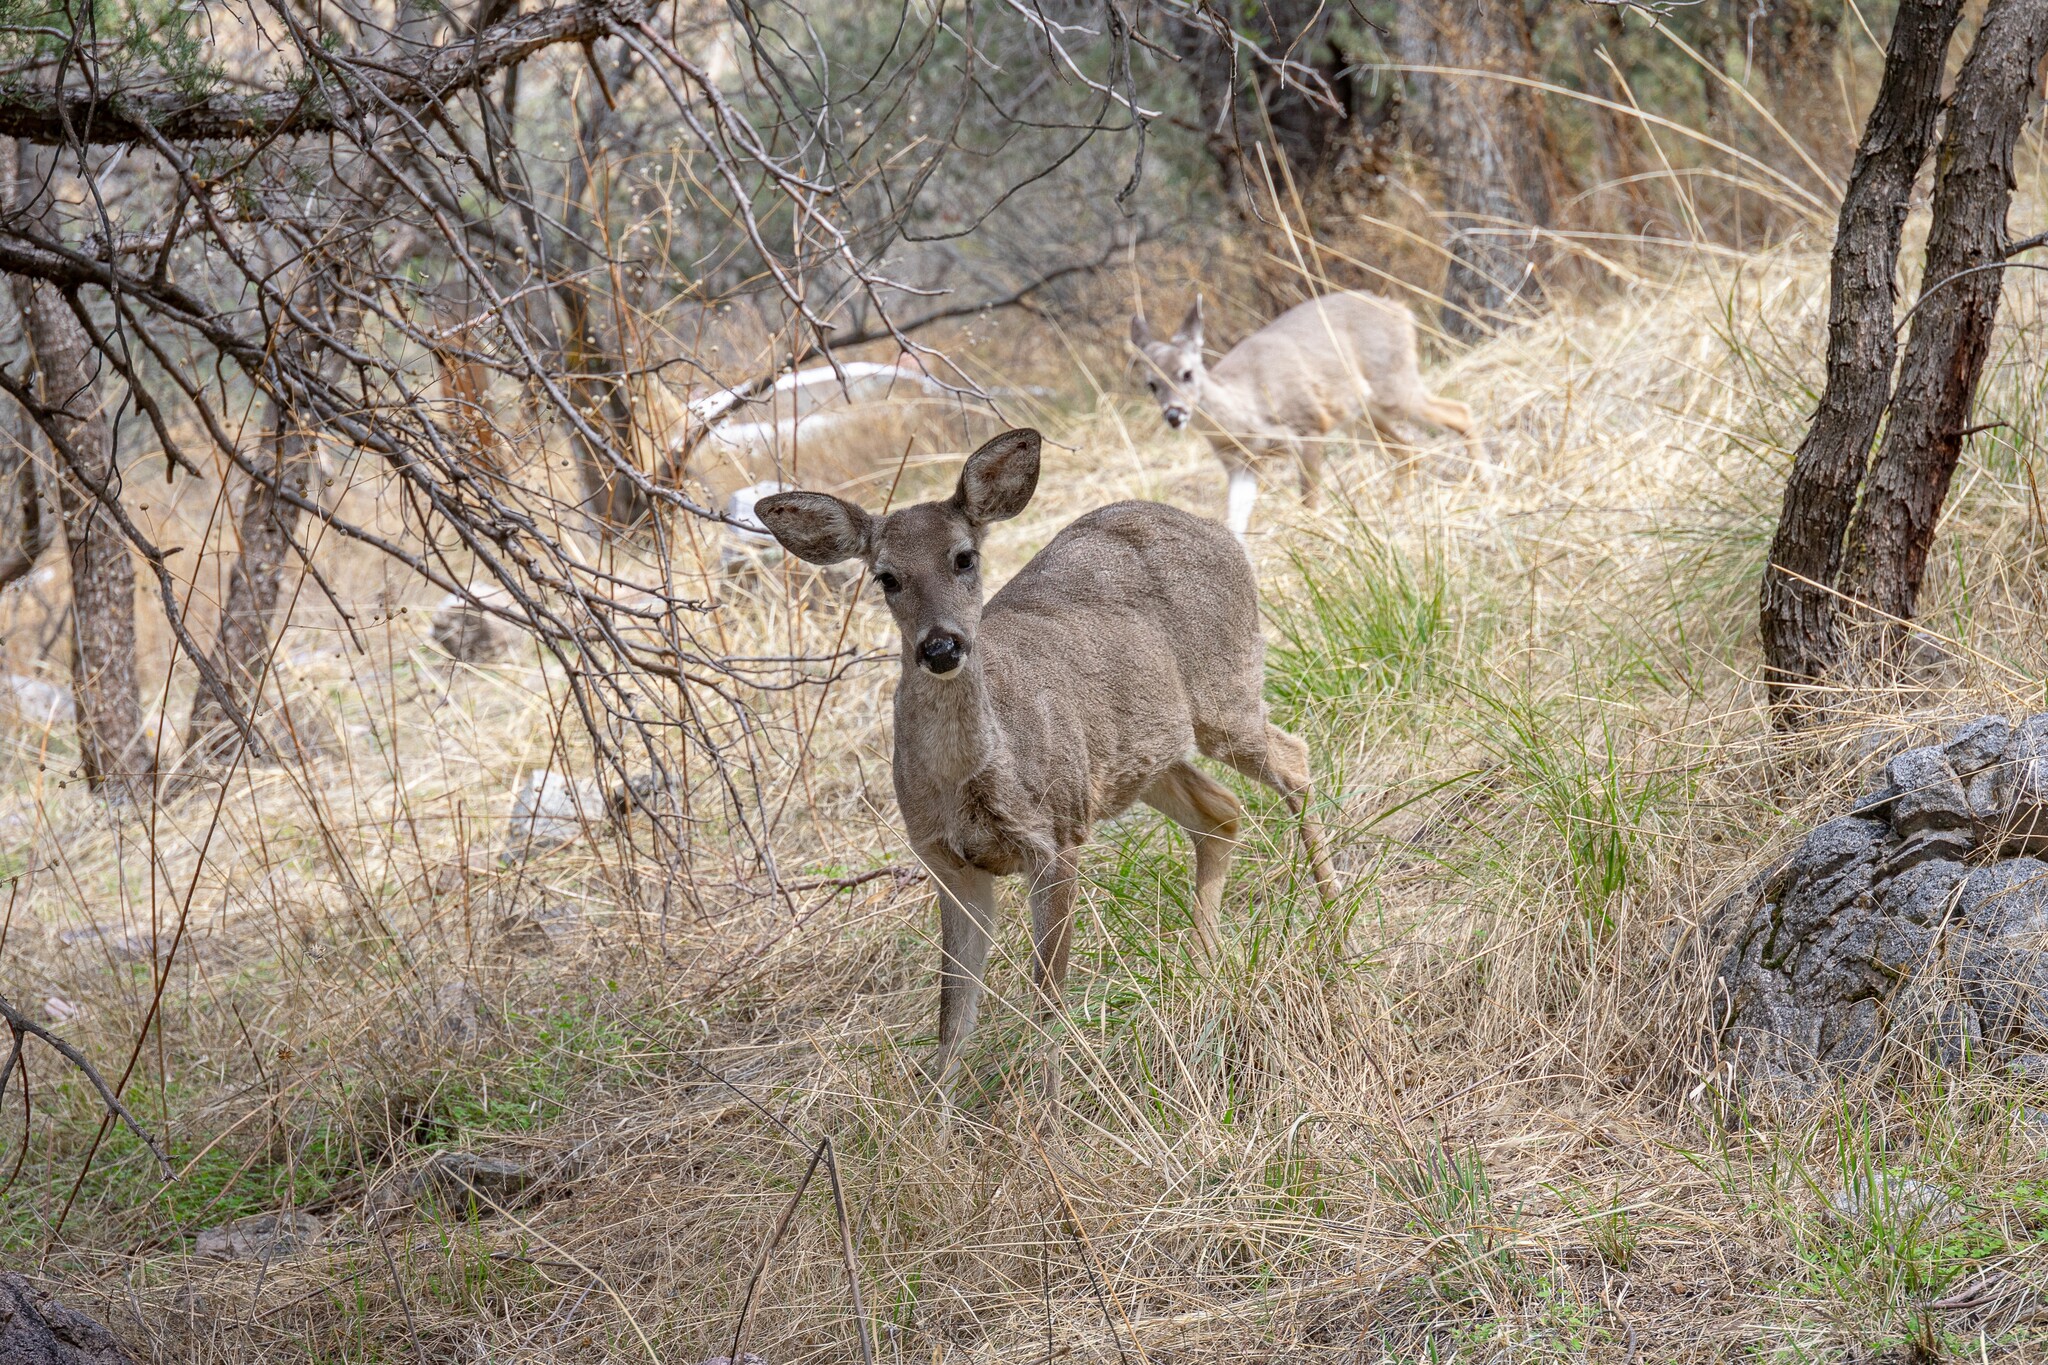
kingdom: Animalia
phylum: Chordata
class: Mammalia
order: Artiodactyla
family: Cervidae
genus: Odocoileus
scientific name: Odocoileus virginianus
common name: White-tailed deer
